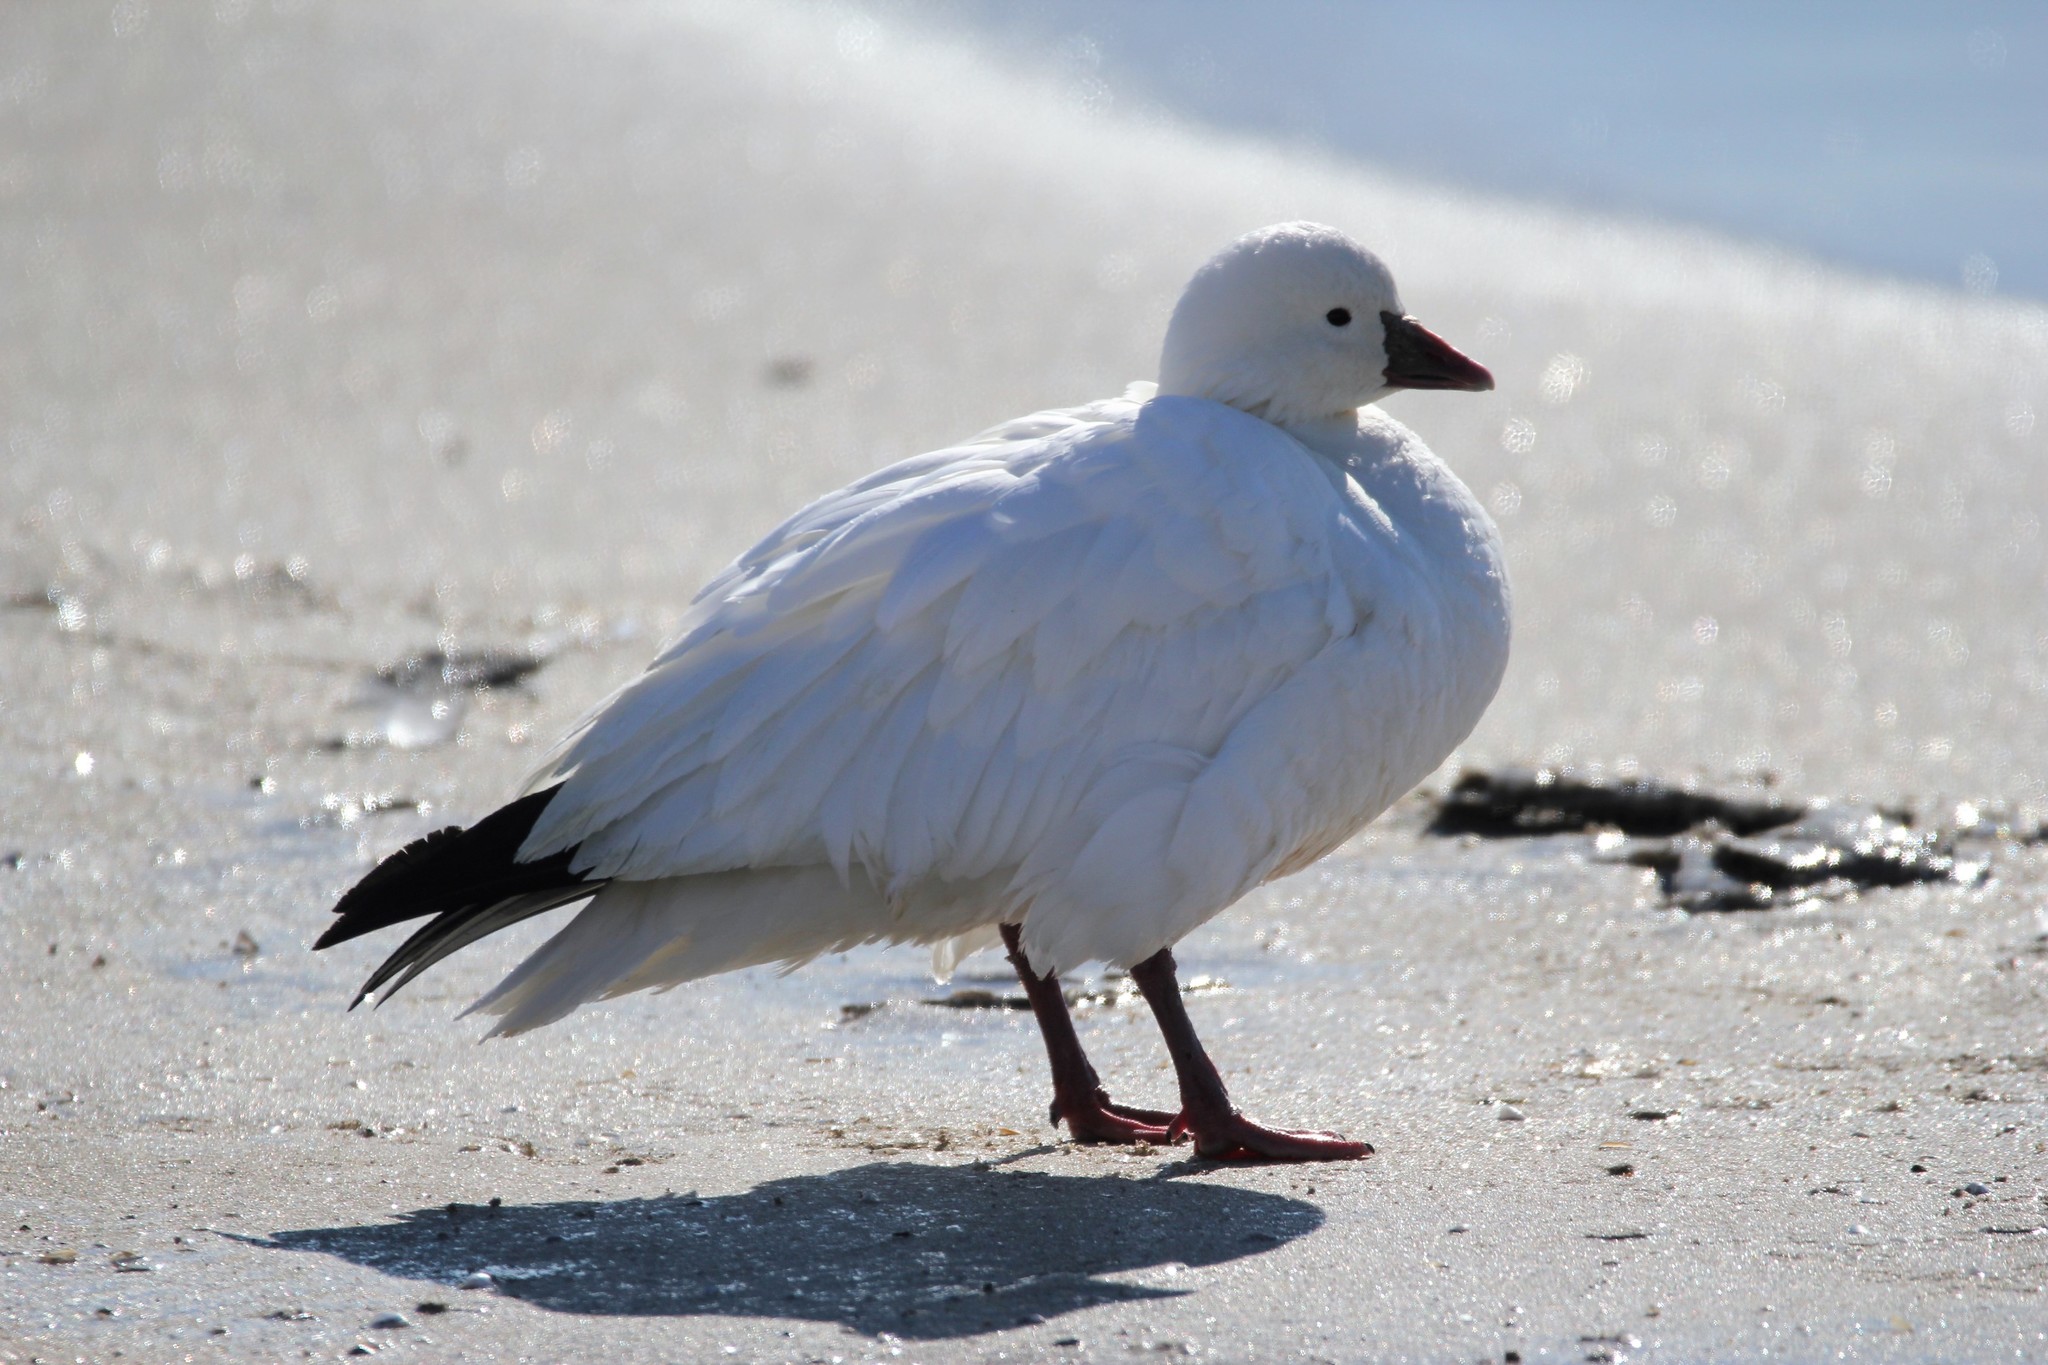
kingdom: Animalia
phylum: Chordata
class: Aves
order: Anseriformes
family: Anatidae
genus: Anser
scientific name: Anser rossii
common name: Ross's goose
